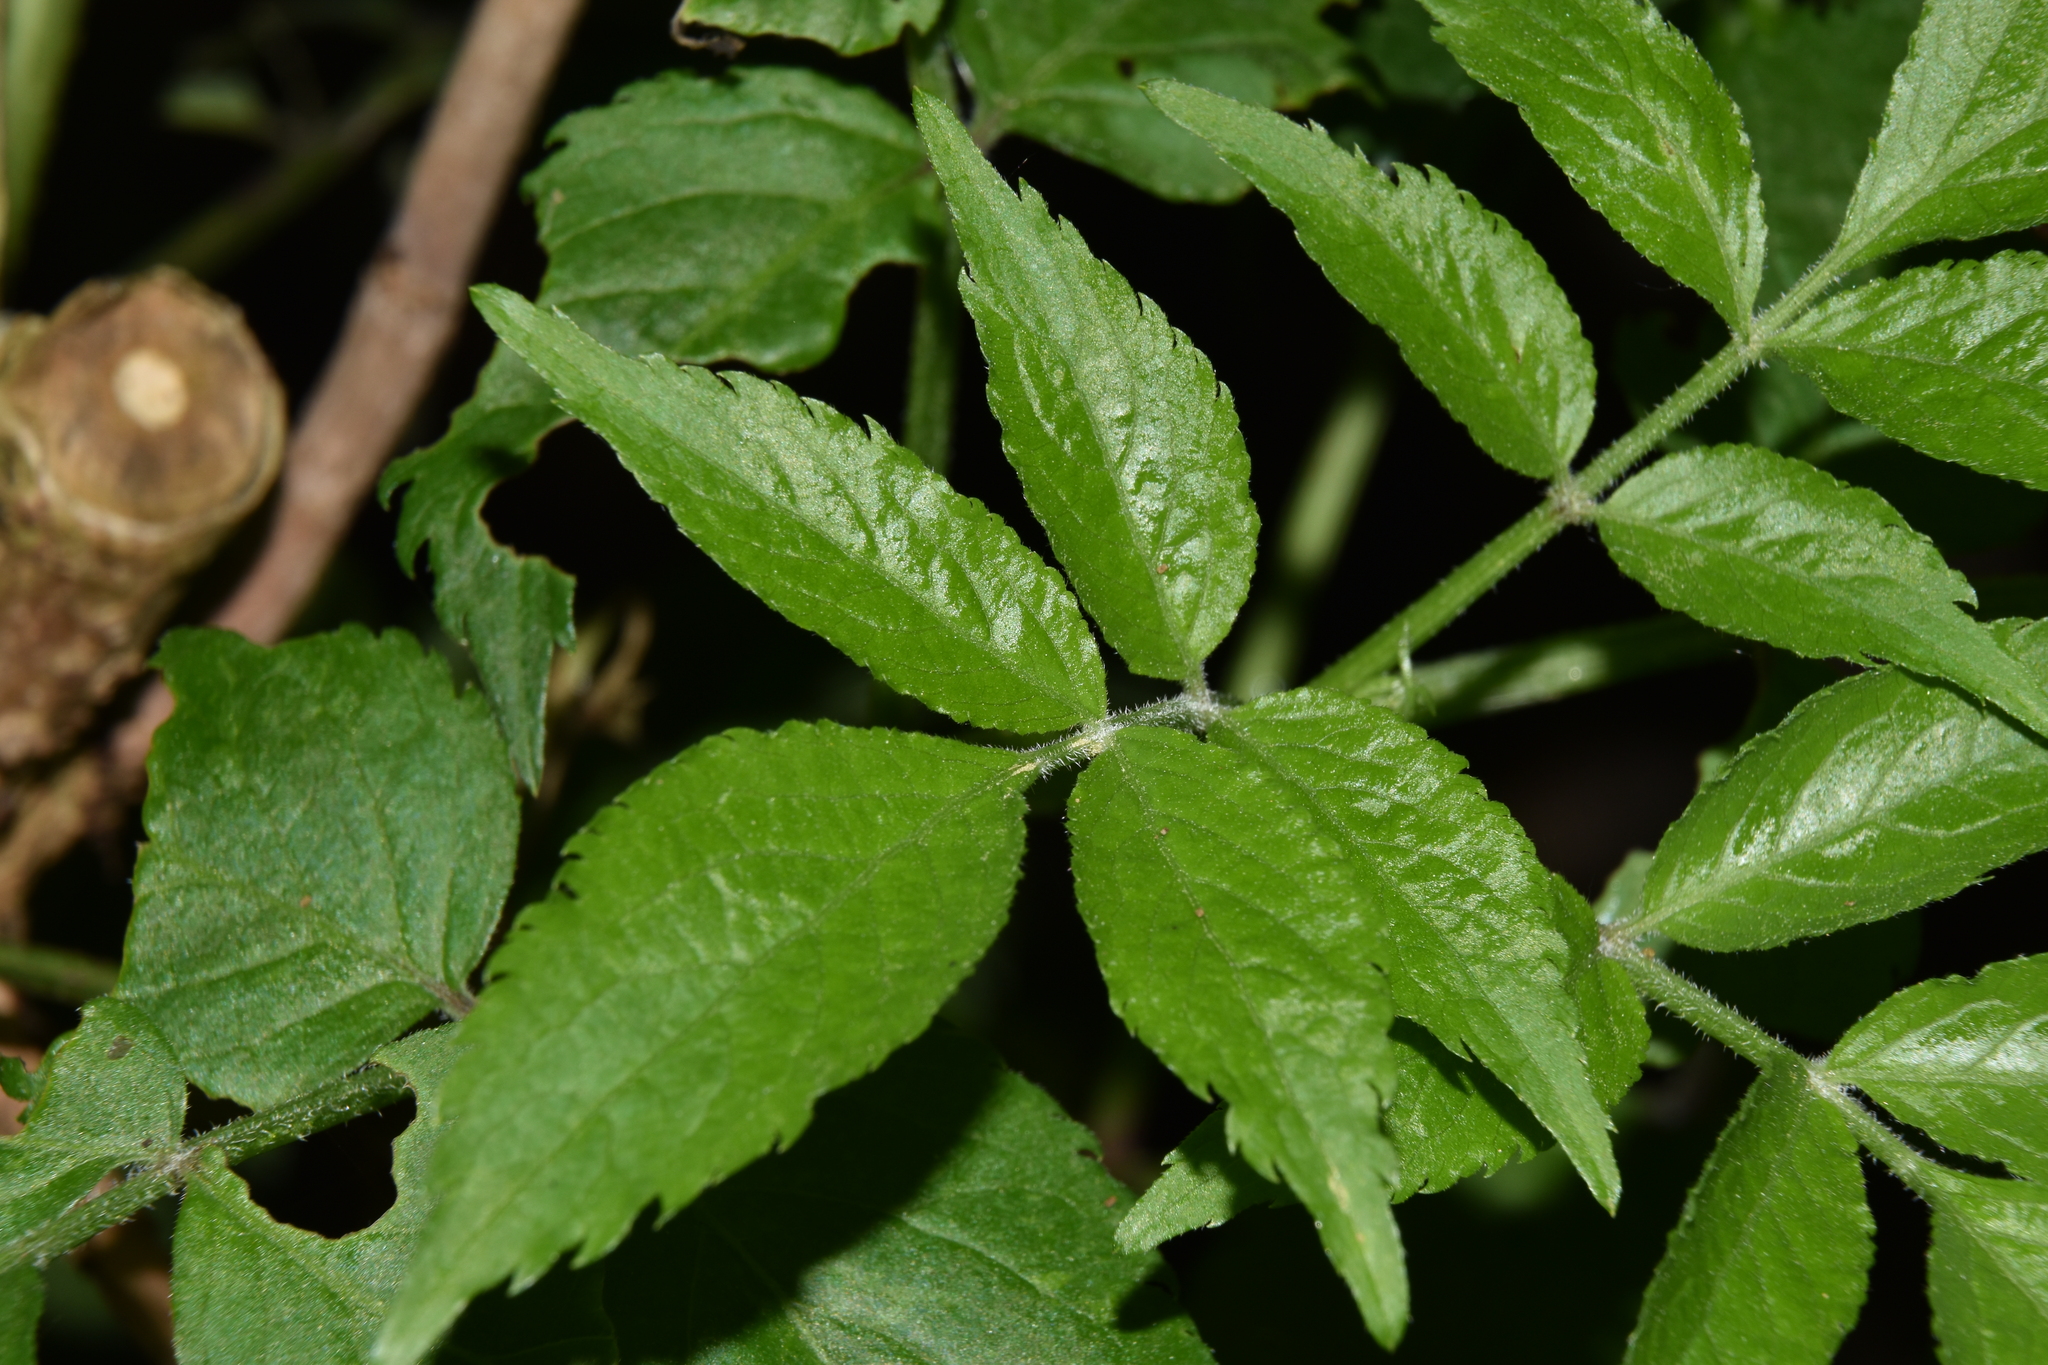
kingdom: Plantae
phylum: Tracheophyta
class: Magnoliopsida
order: Dipsacales
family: Viburnaceae
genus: Sambucus
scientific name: Sambucus nigra
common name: Elder
